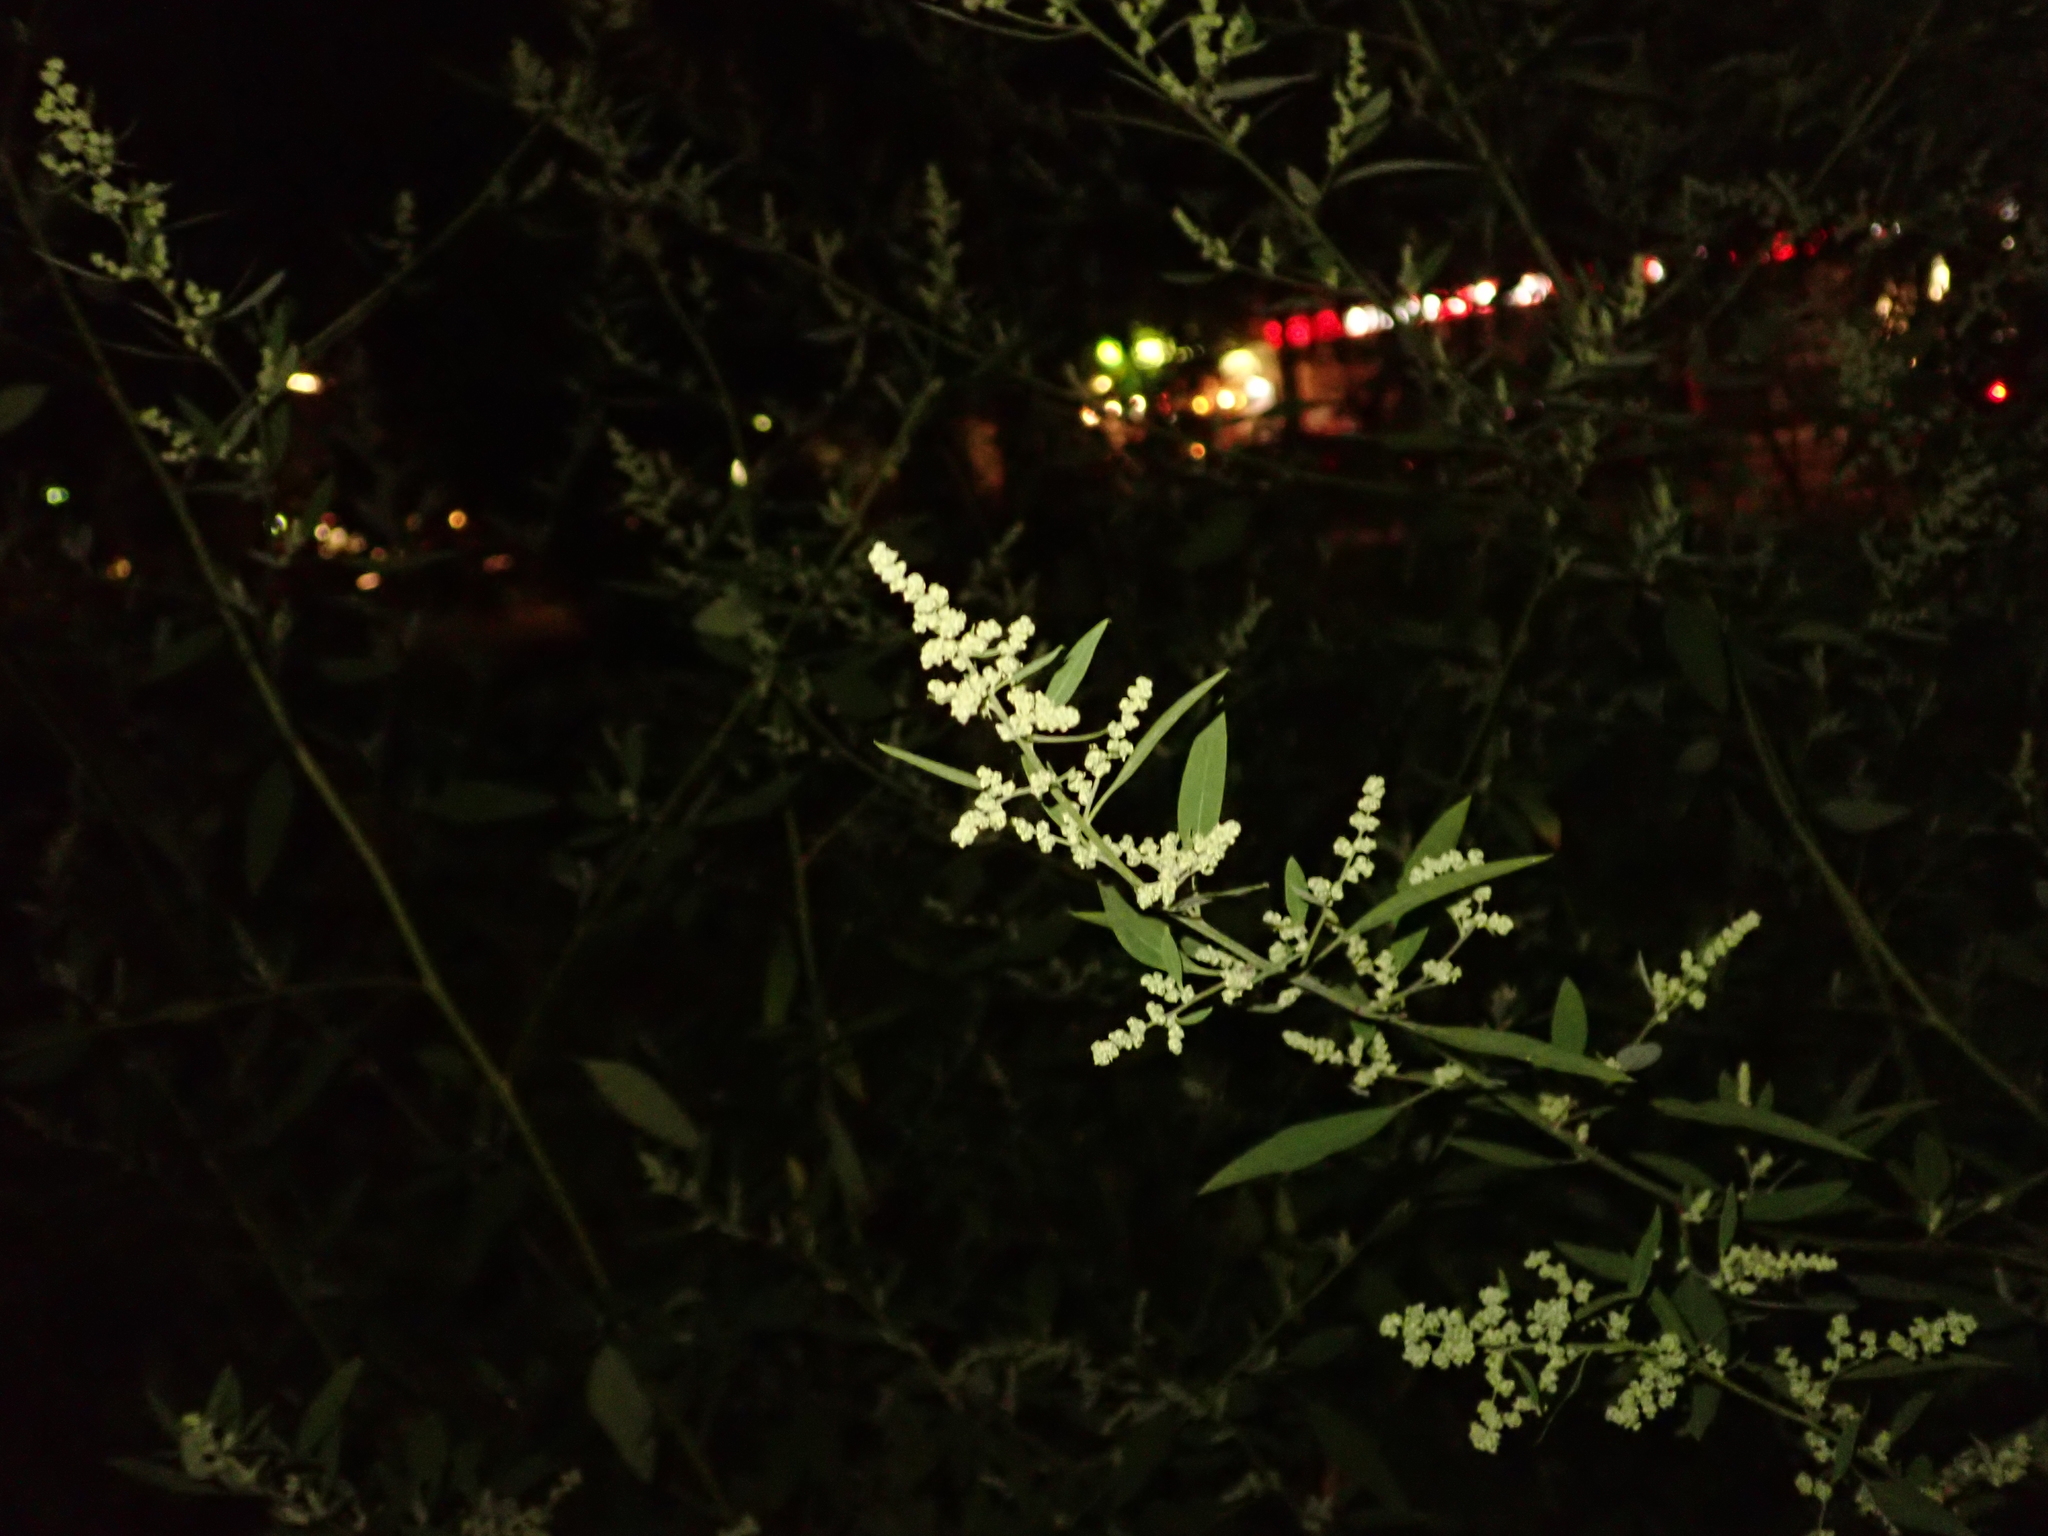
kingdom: Plantae
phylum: Tracheophyta
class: Magnoliopsida
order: Caryophyllales
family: Amaranthaceae
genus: Chenopodium
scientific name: Chenopodium album
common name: Fat-hen
